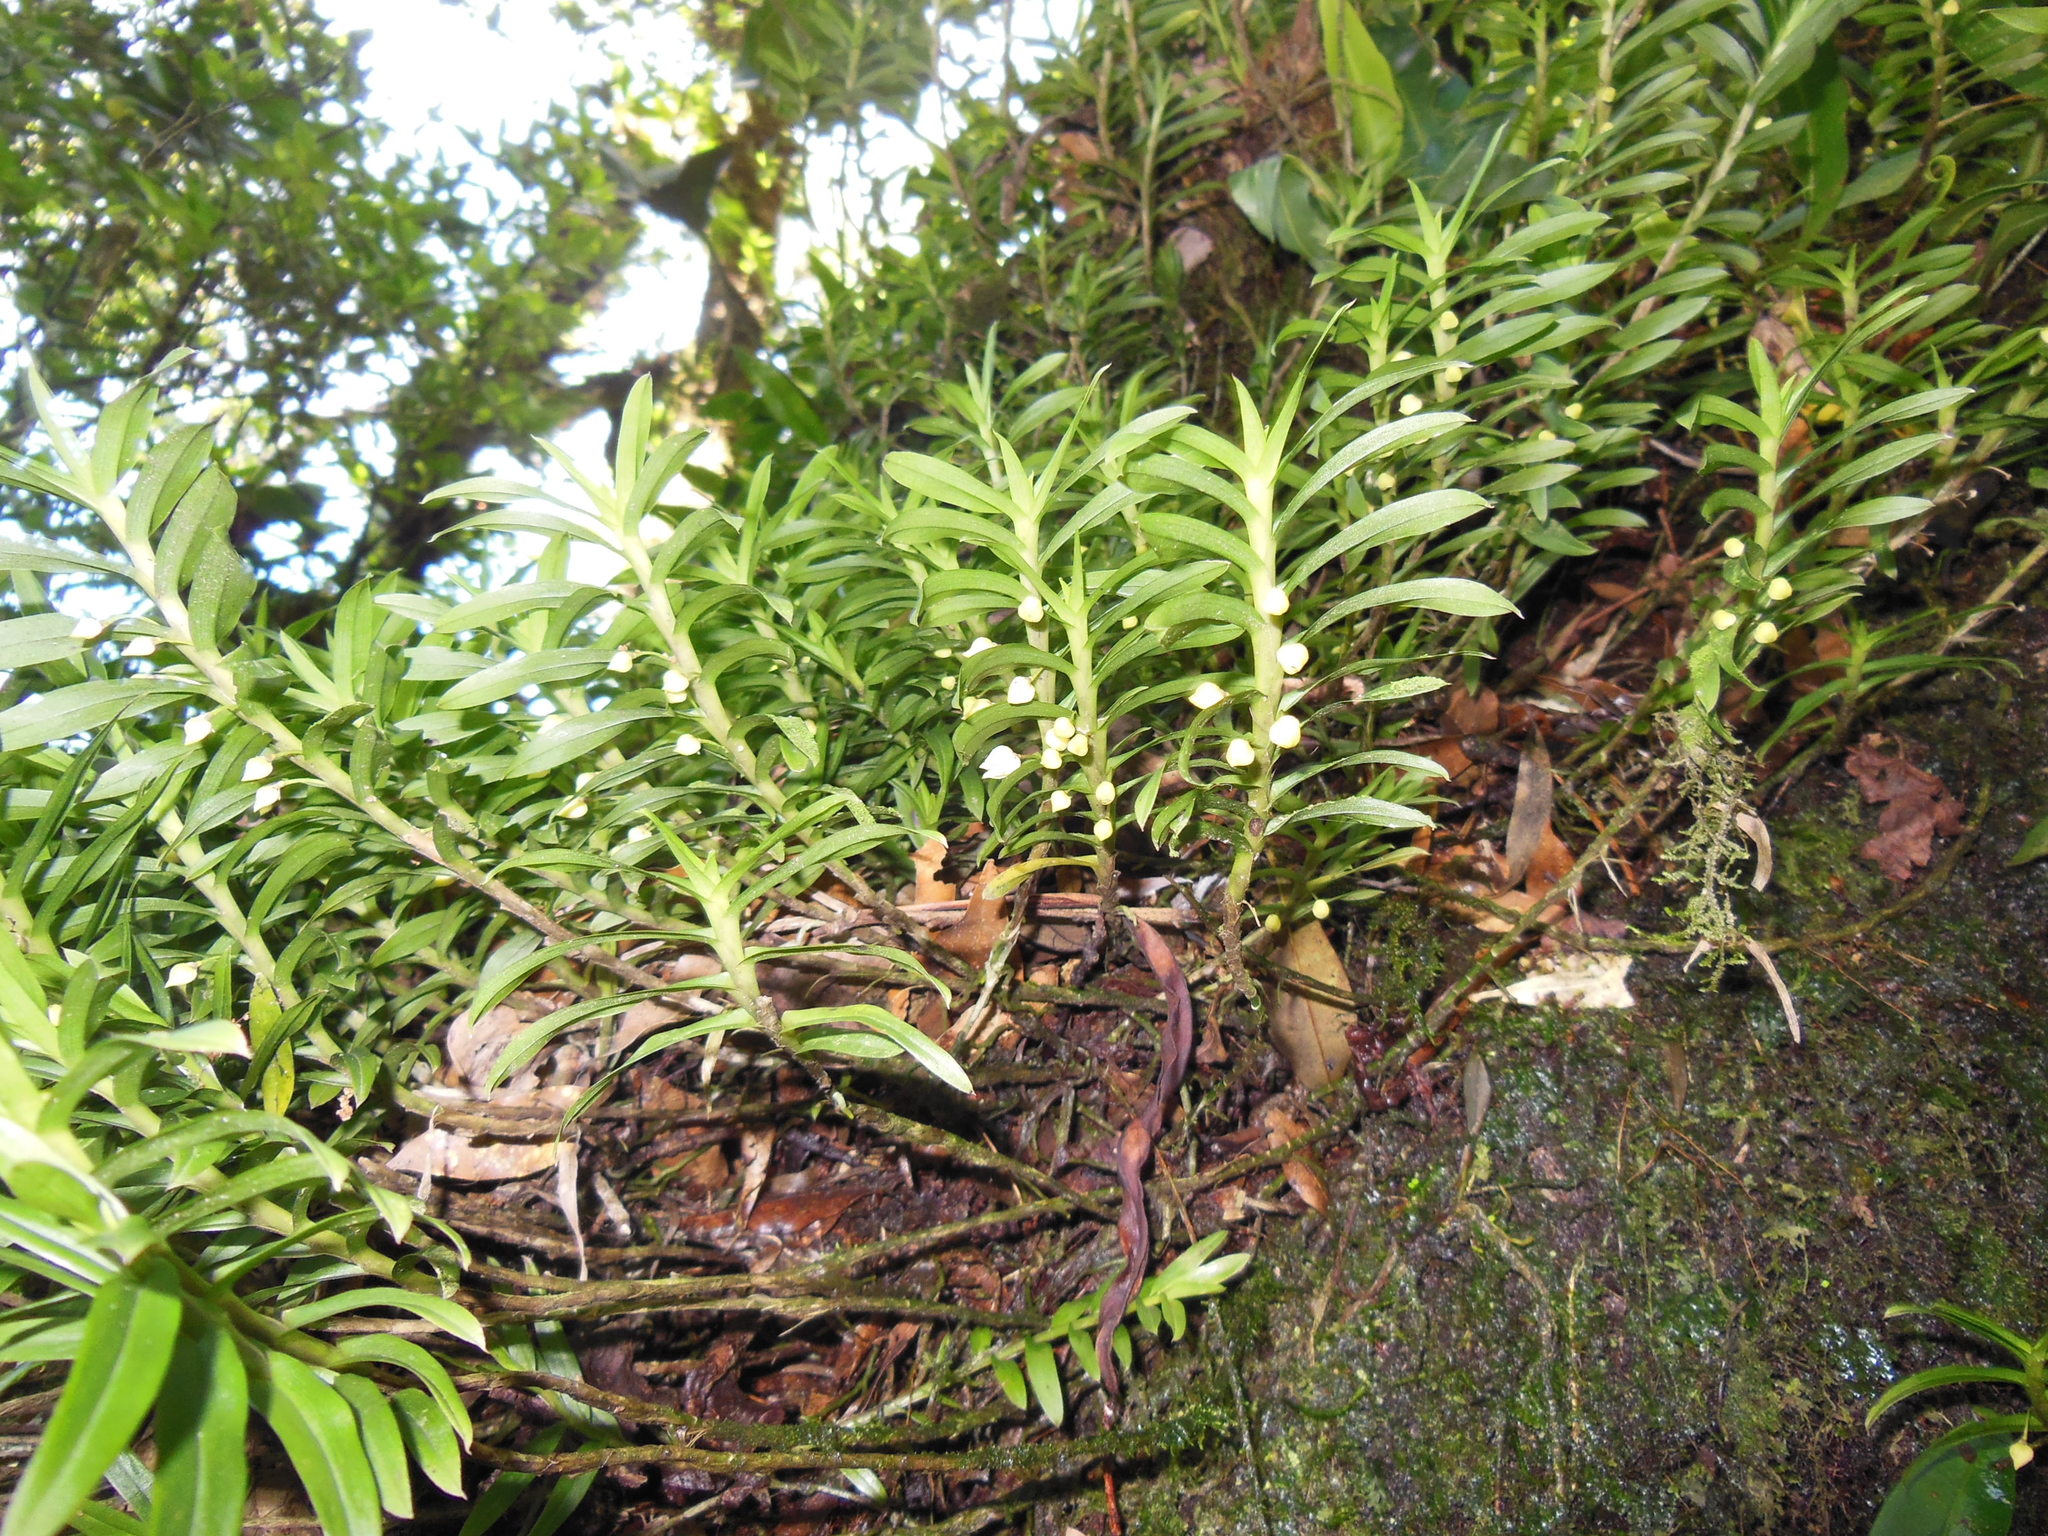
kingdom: Plantae
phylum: Tracheophyta
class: Liliopsida
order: Asparagales
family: Orchidaceae
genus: Dichaea
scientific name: Dichaea graminoides
